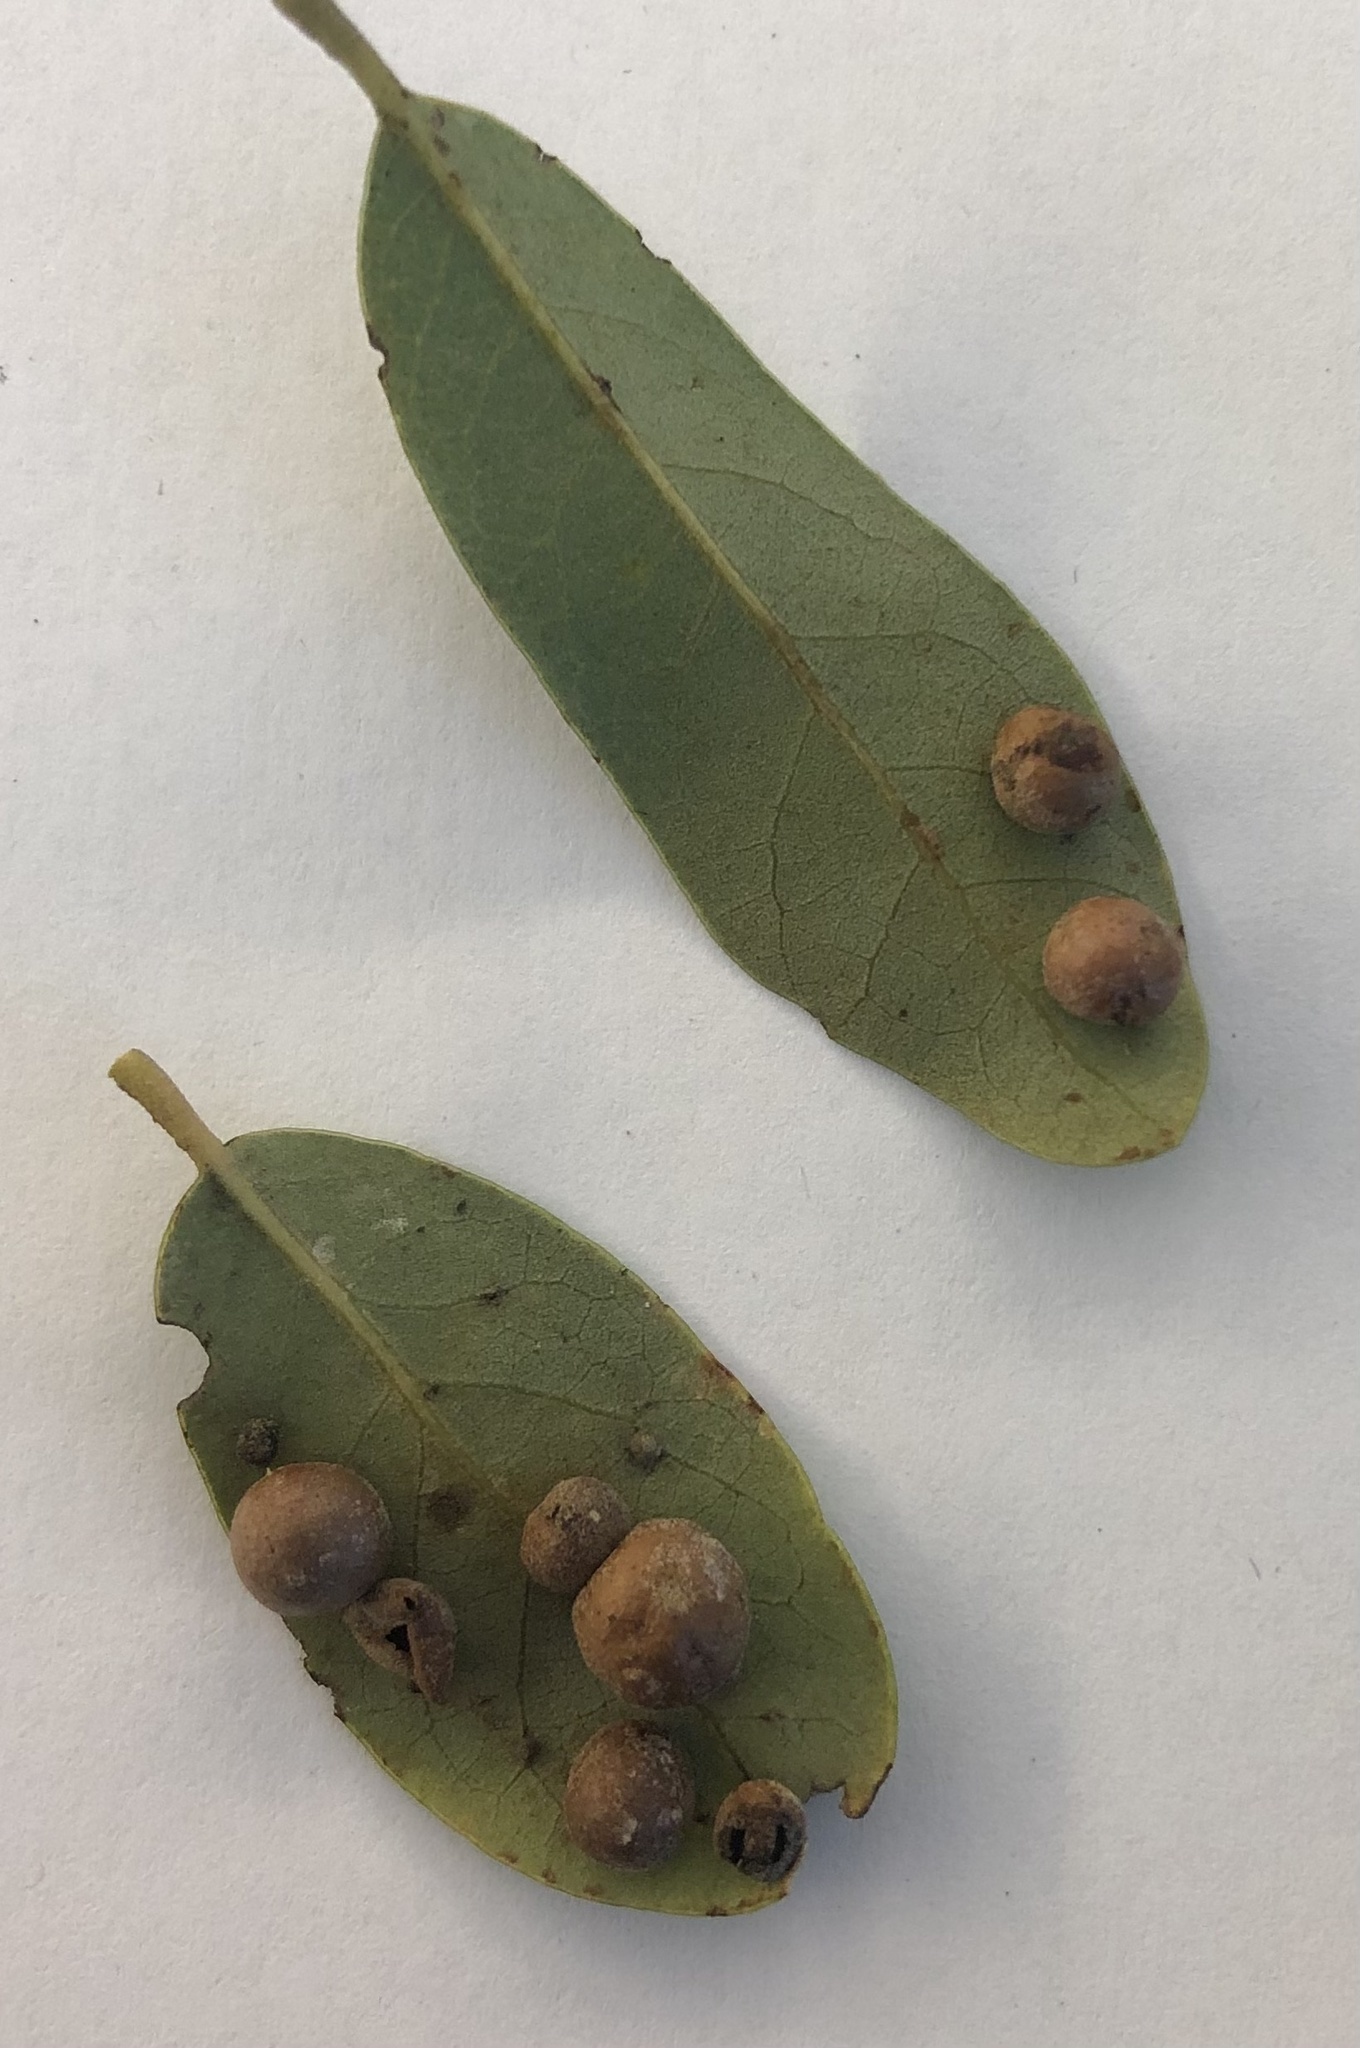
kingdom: Animalia
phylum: Arthropoda
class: Insecta
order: Hymenoptera
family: Cynipidae
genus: Belonocnema
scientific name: Belonocnema kinseyi
